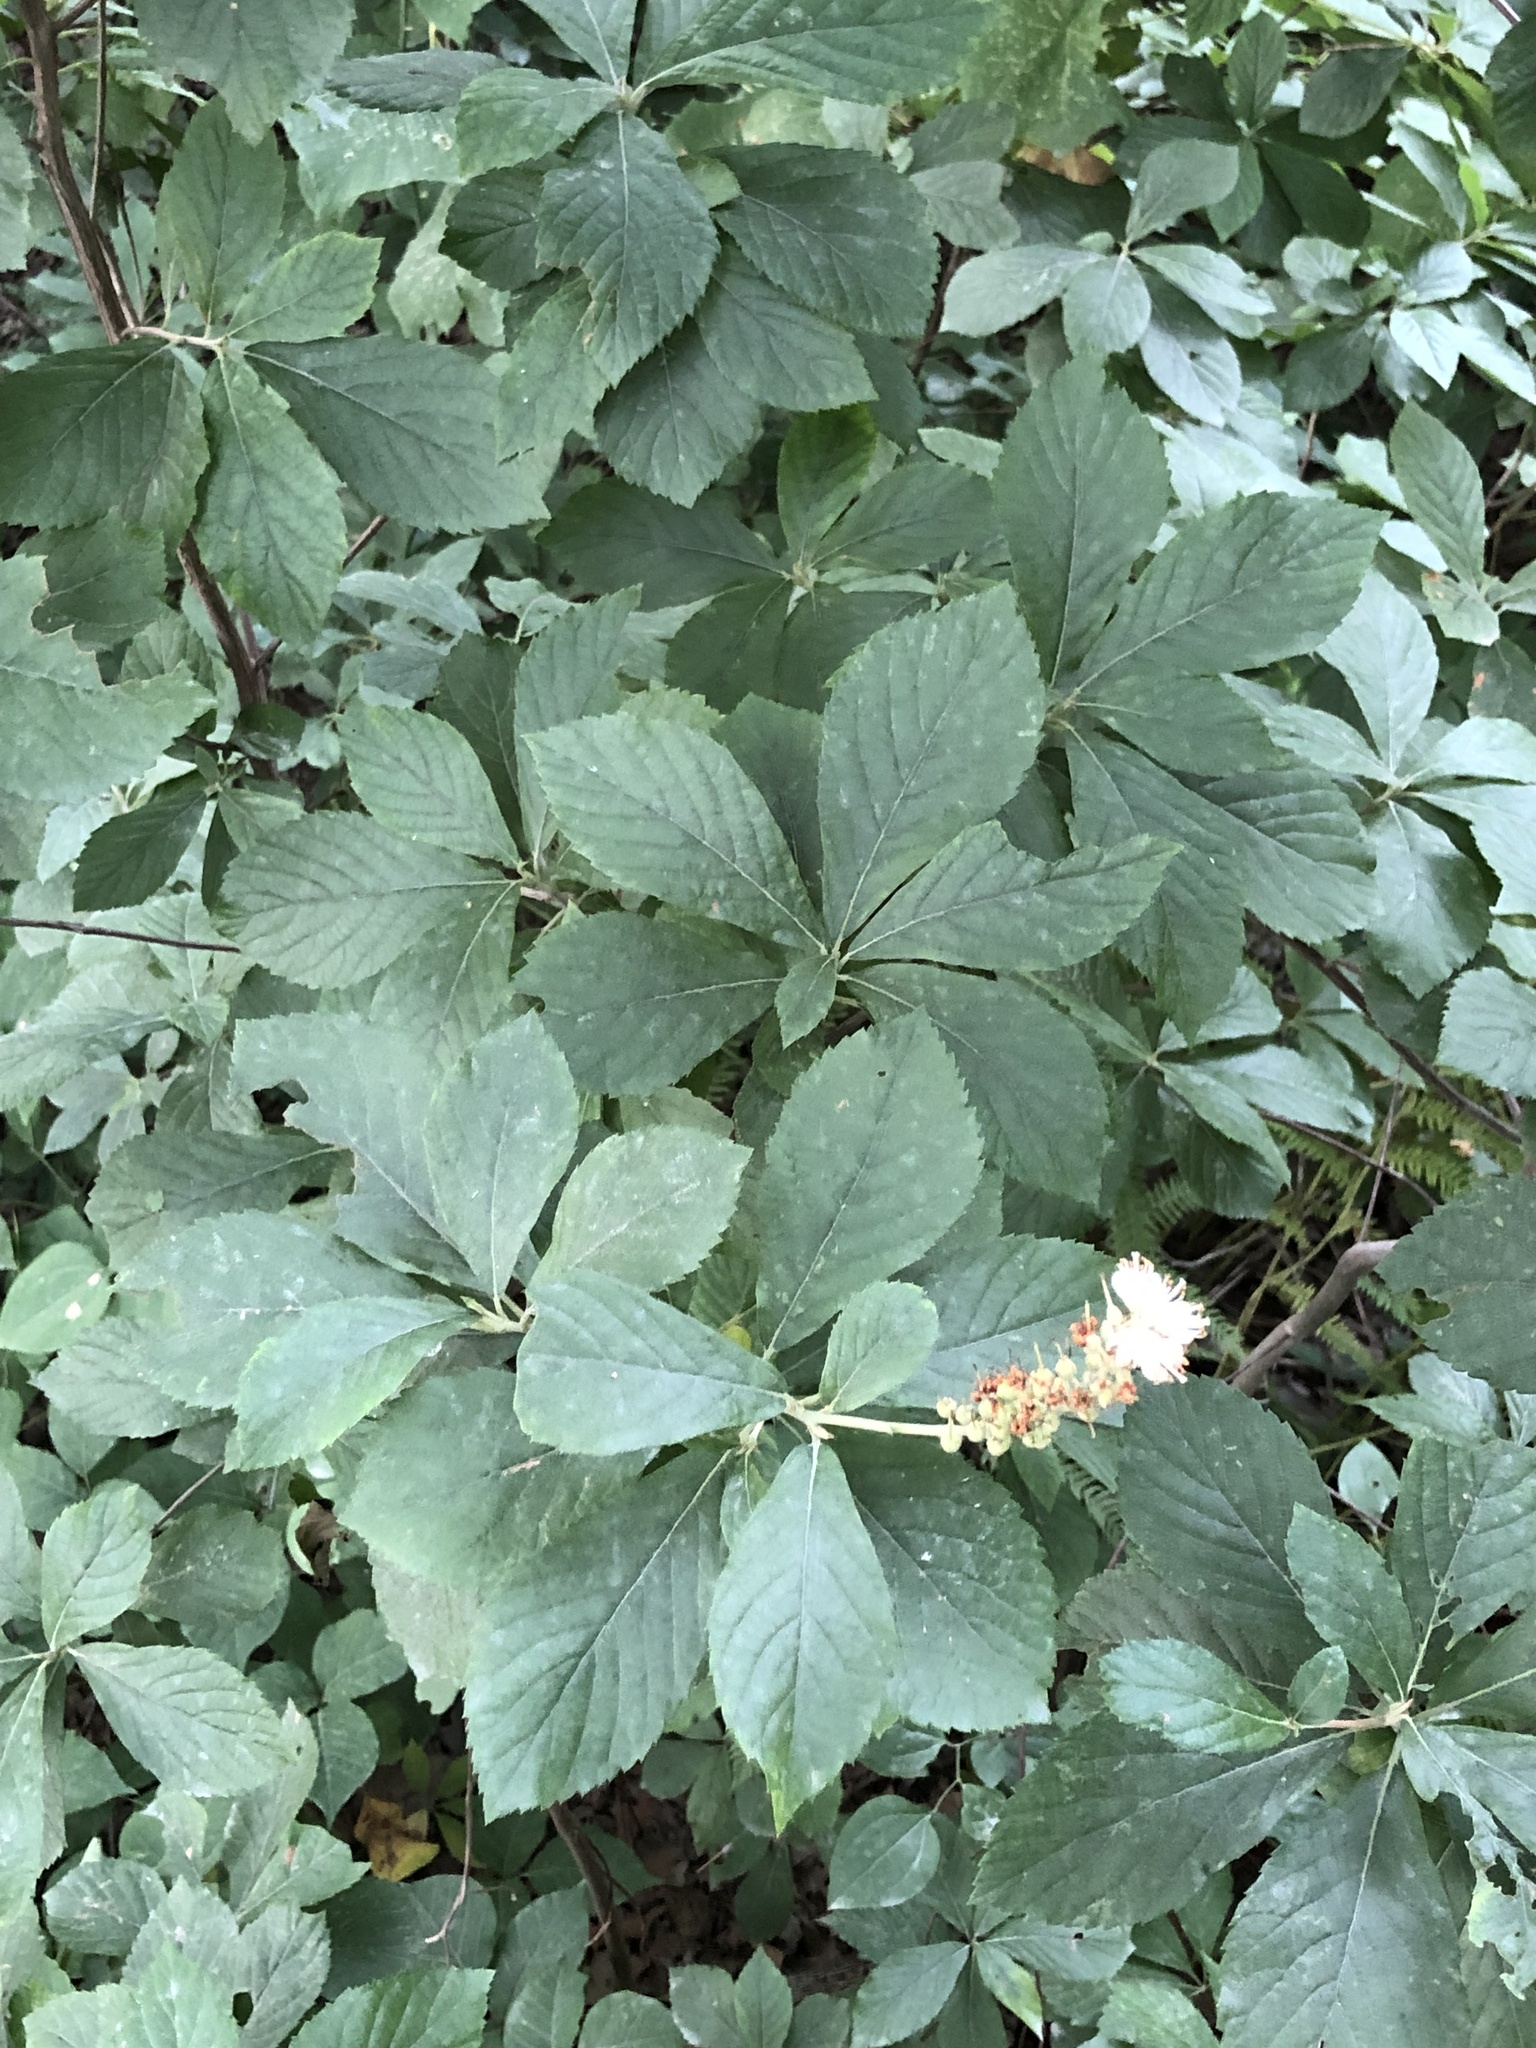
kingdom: Plantae
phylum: Tracheophyta
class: Magnoliopsida
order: Ericales
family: Clethraceae
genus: Clethra
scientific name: Clethra alnifolia
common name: Sweet pepperbush
